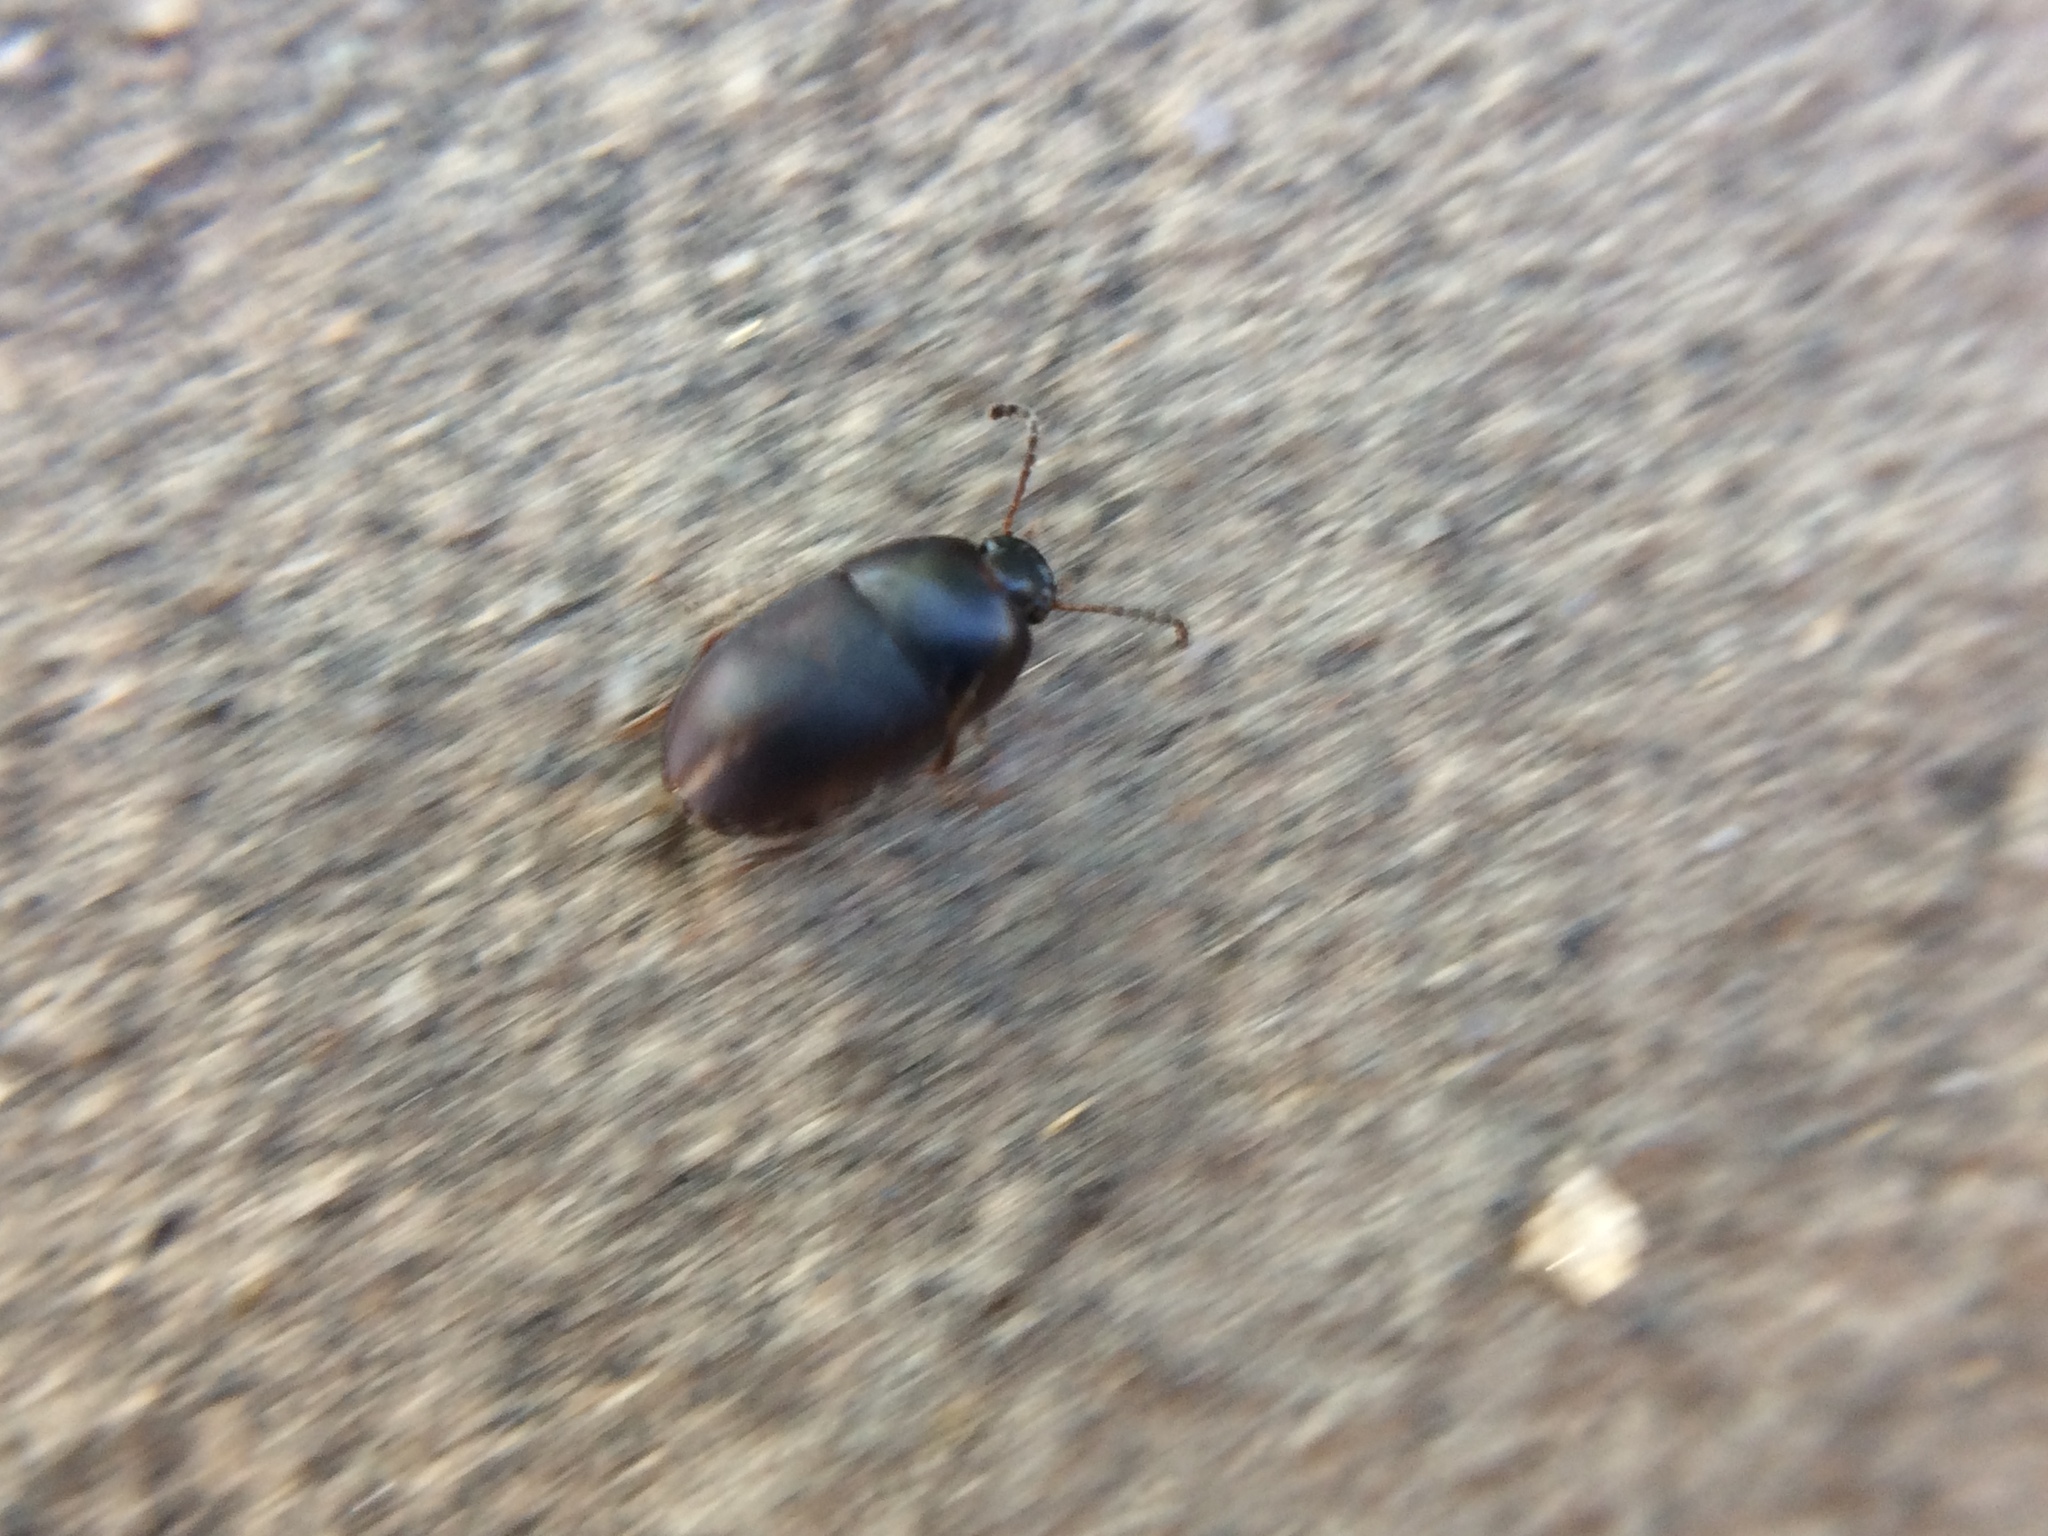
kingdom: Animalia
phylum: Arthropoda
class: Insecta
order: Coleoptera
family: Tenebrionidae
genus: Gondwanocrypticus
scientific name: Gondwanocrypticus platensis
